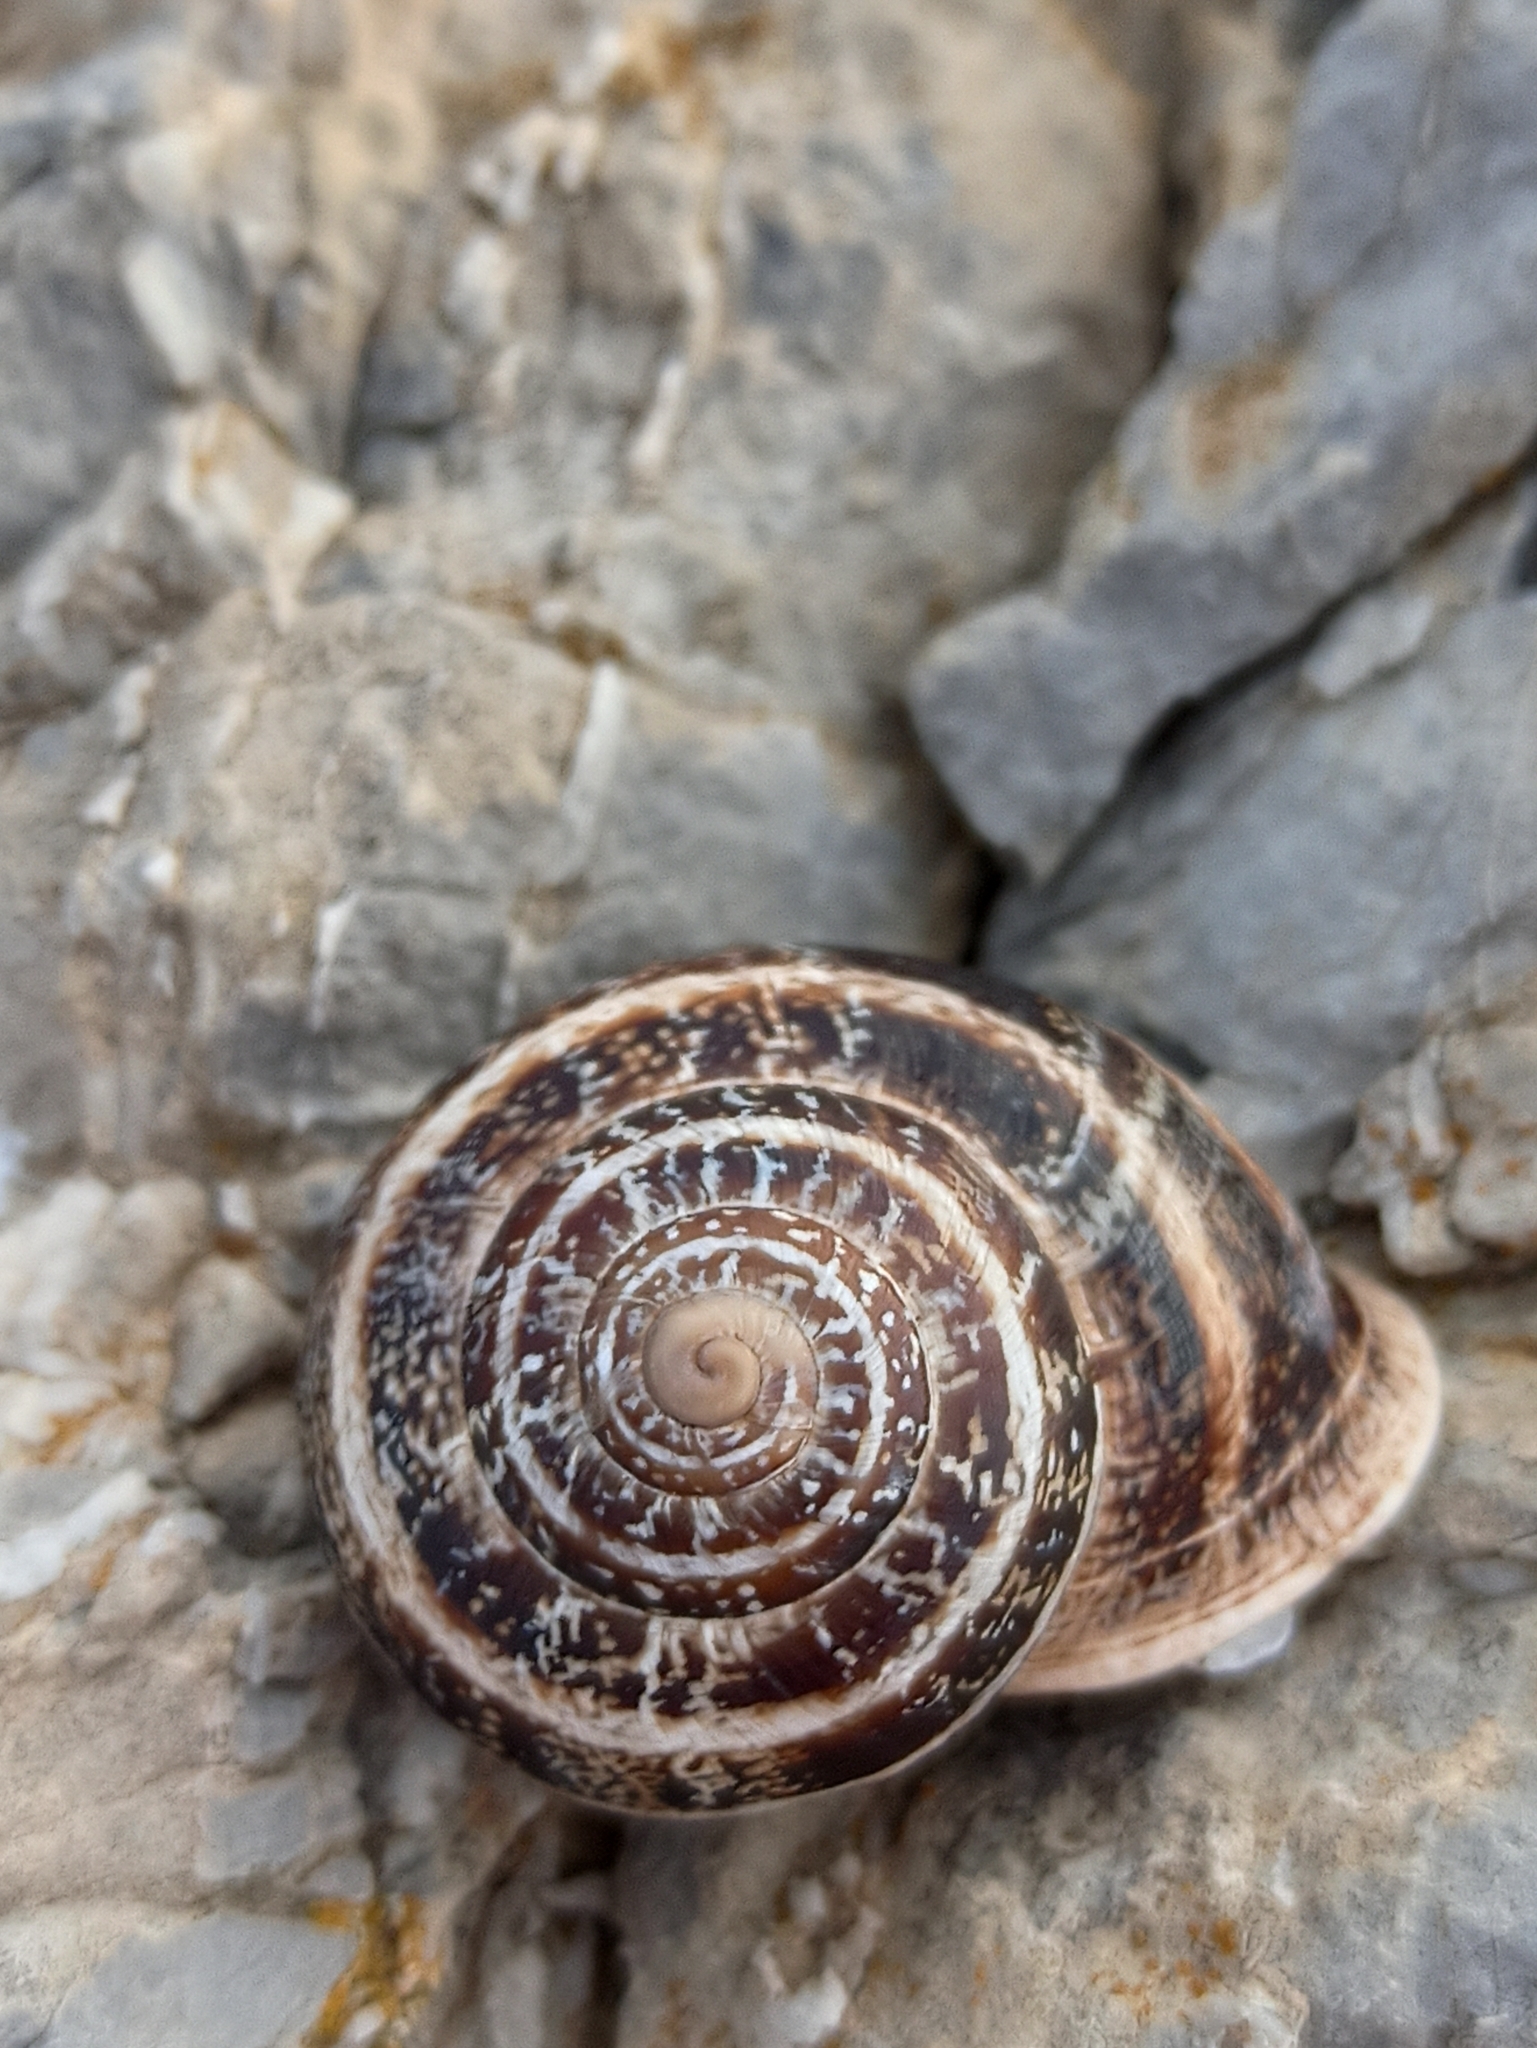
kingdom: Animalia
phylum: Mollusca
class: Gastropoda
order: Stylommatophora
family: Helicidae
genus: Otala
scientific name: Otala lactea
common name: Milk snail
